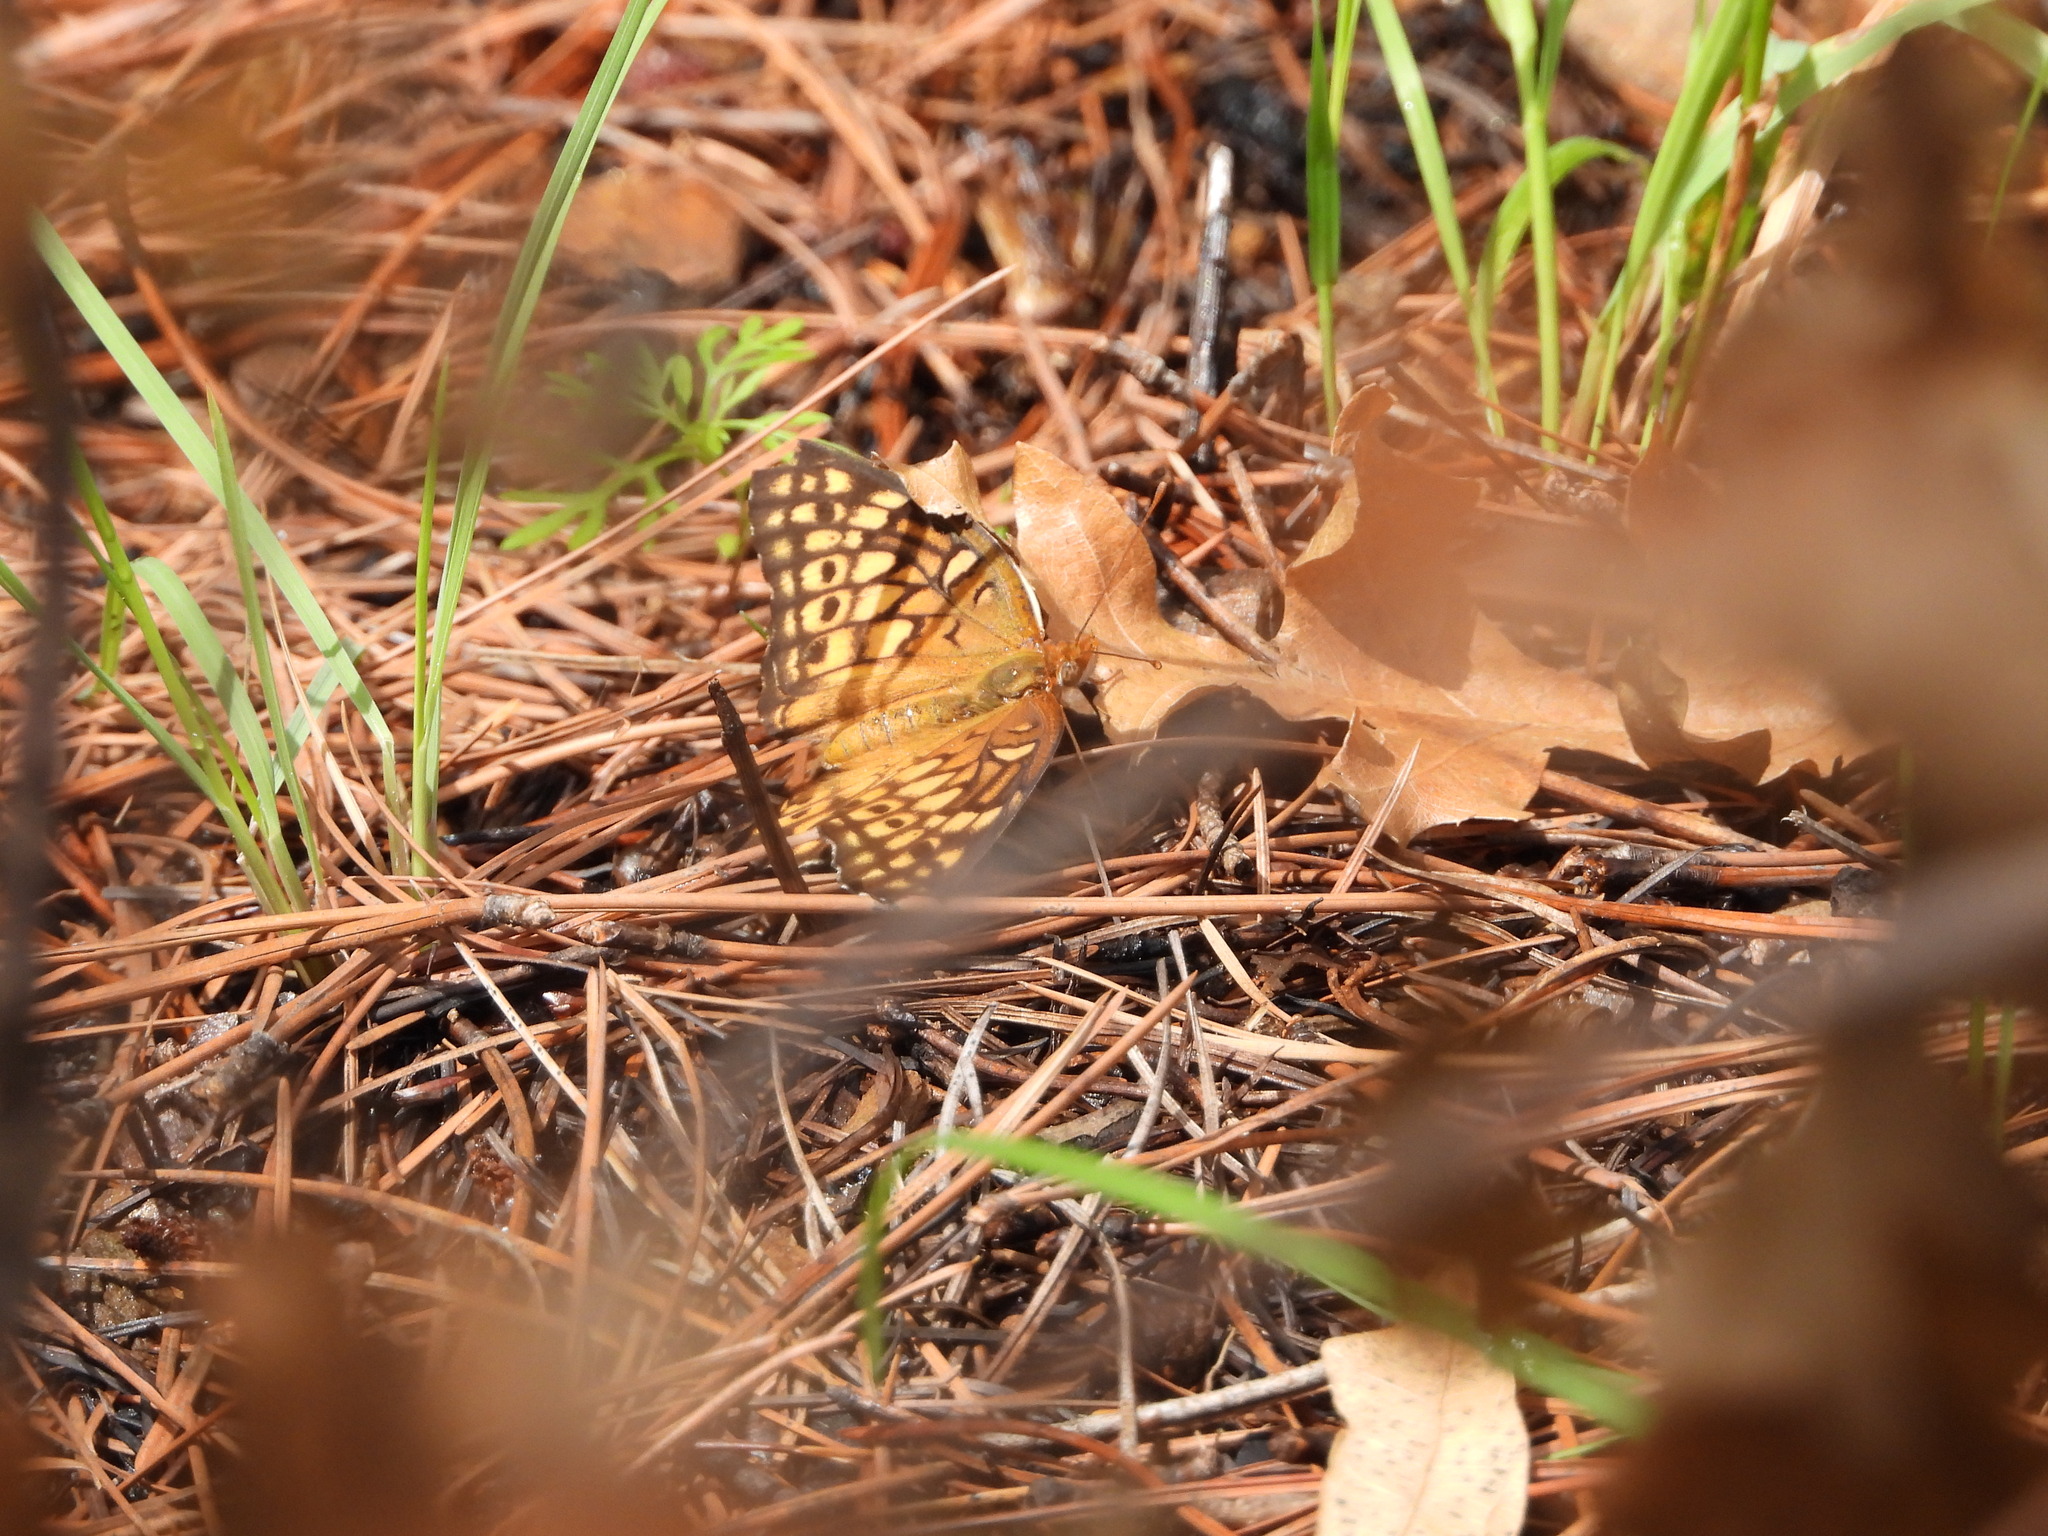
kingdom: Animalia
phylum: Arthropoda
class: Insecta
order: Lepidoptera
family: Nymphalidae
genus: Euptoieta
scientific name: Euptoieta claudia
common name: Variegated fritillary
